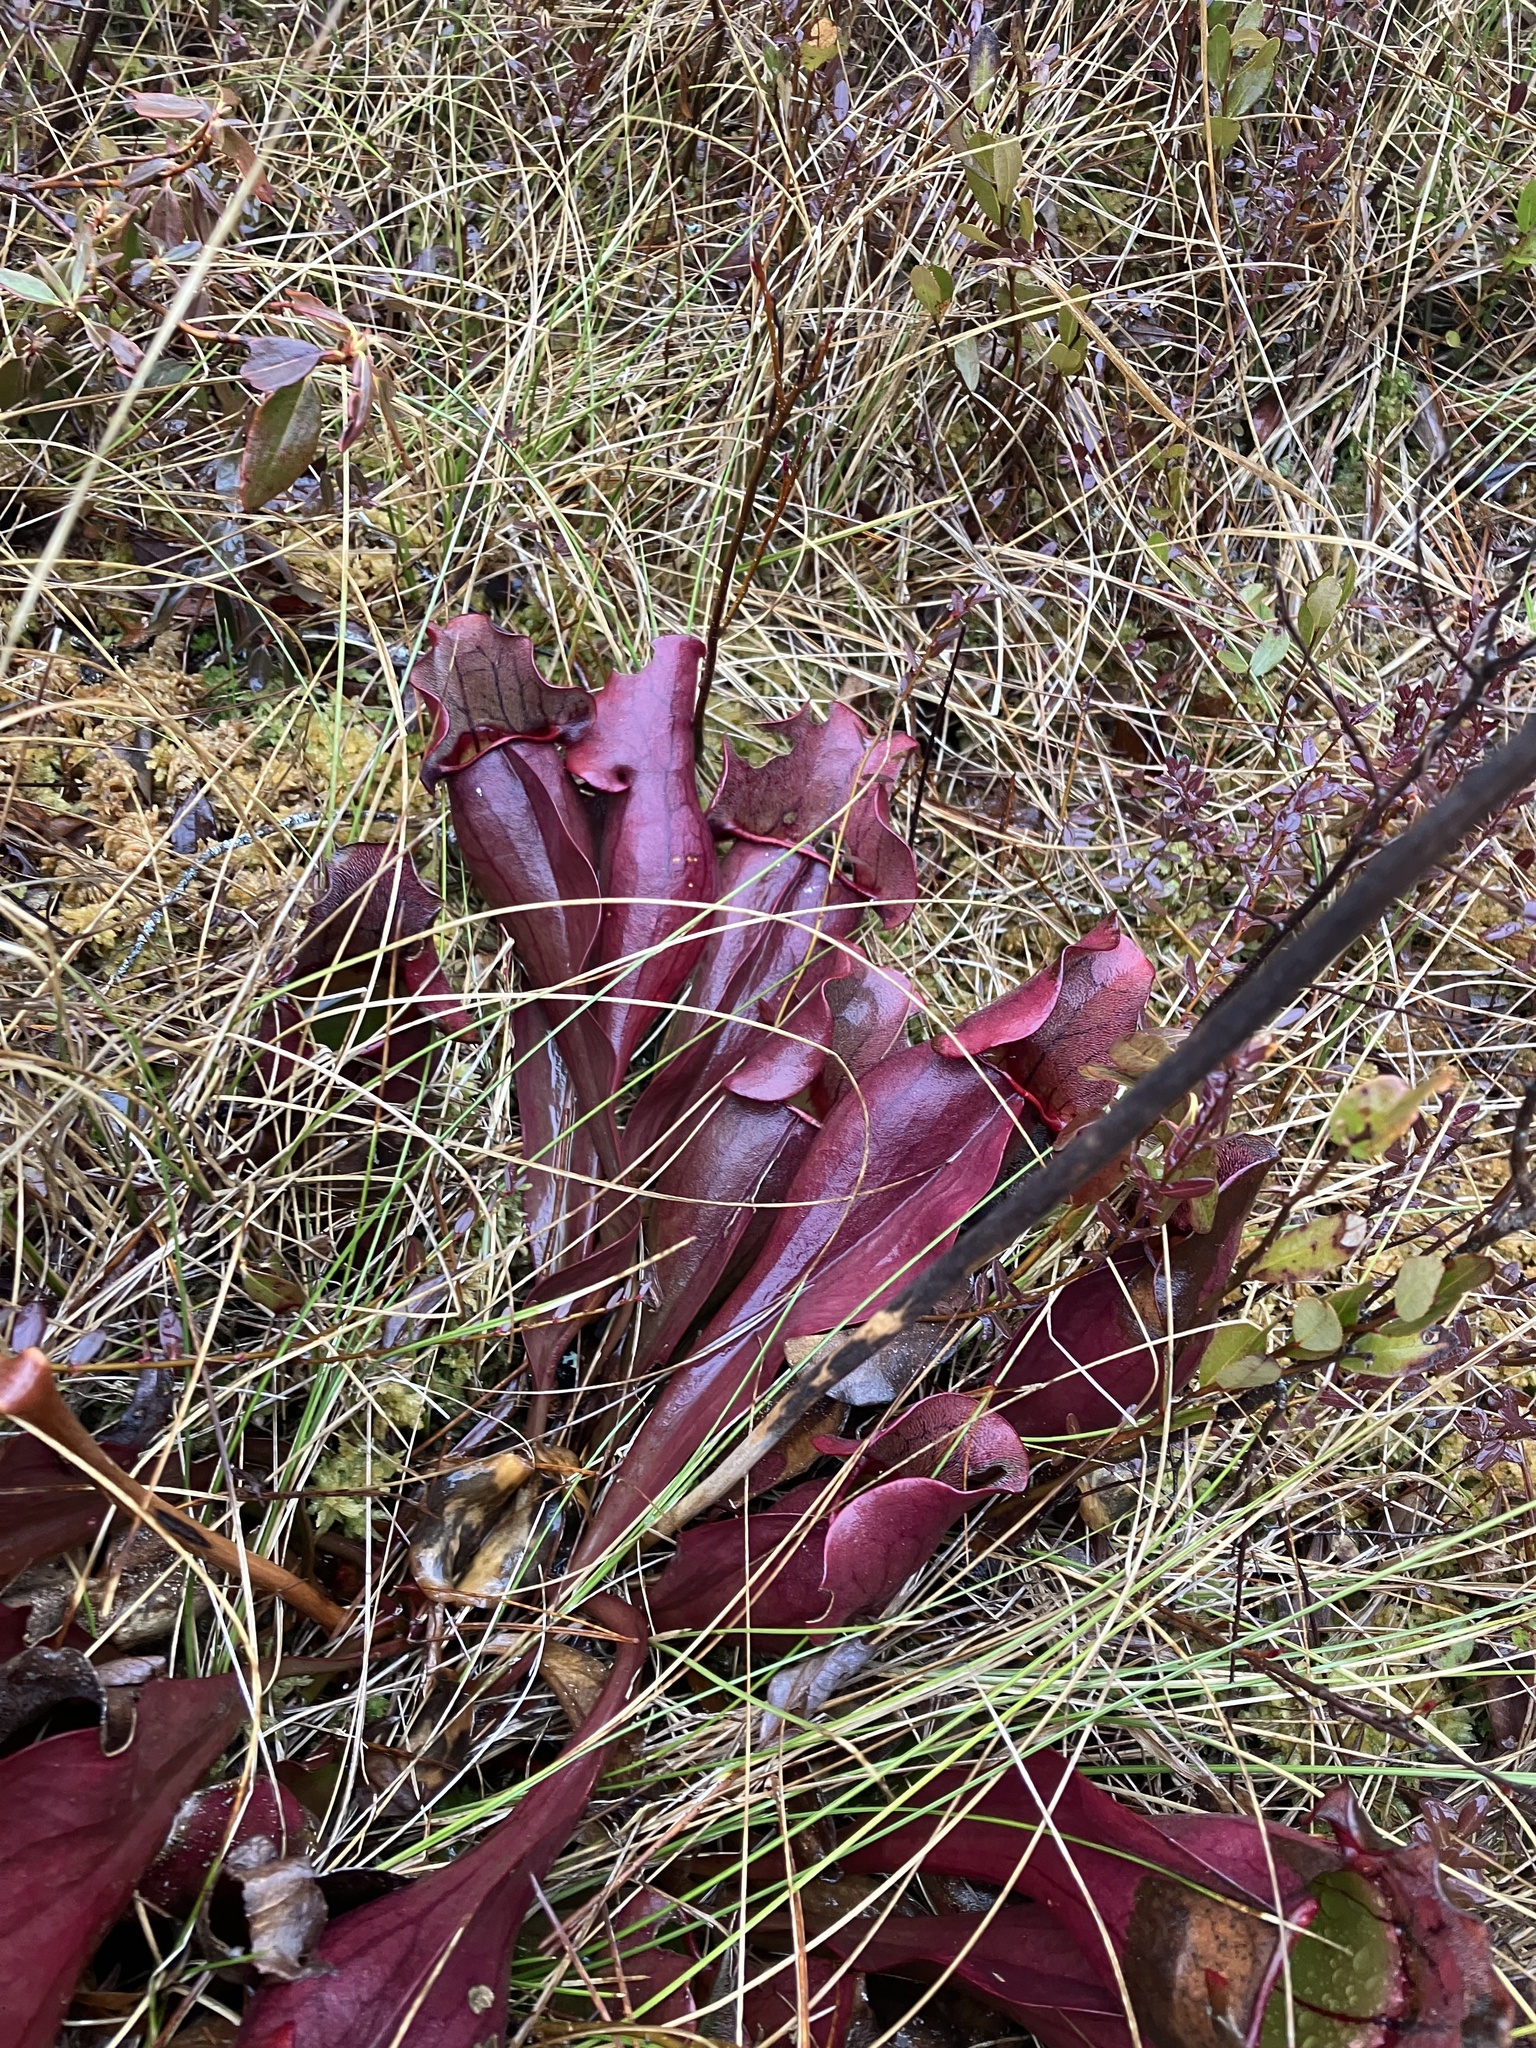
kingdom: Plantae
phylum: Tracheophyta
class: Magnoliopsida
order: Ericales
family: Sarraceniaceae
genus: Sarracenia
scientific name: Sarracenia purpurea
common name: Pitcherplant
